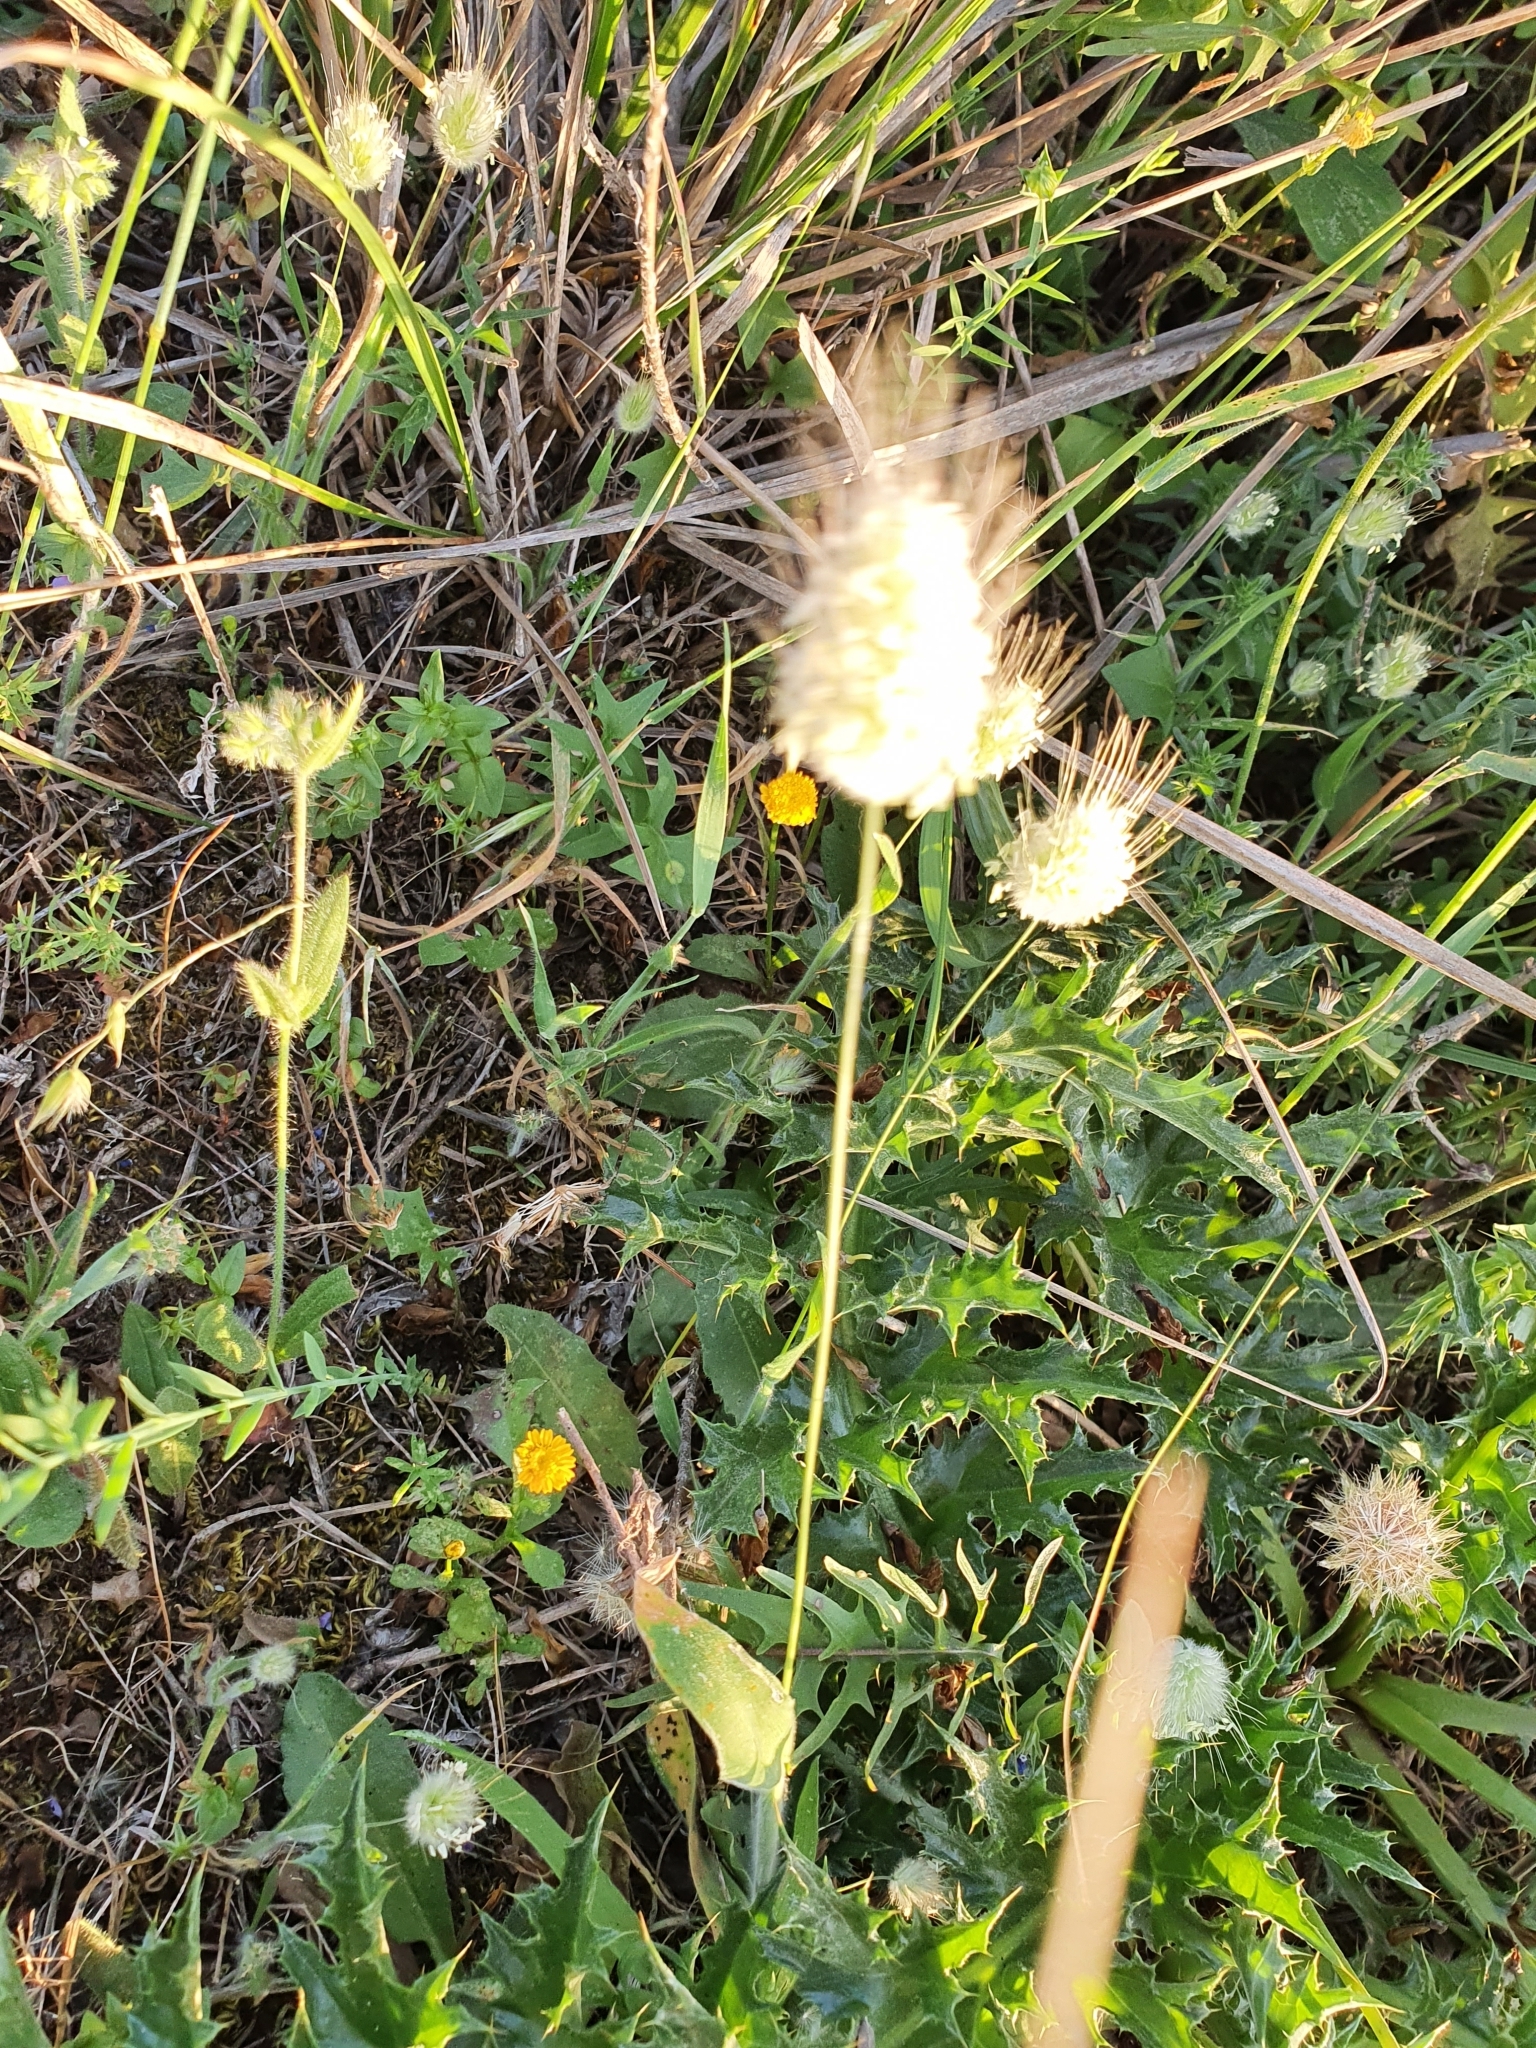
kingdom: Plantae
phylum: Tracheophyta
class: Liliopsida
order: Poales
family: Poaceae
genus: Lagurus
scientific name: Lagurus ovatus
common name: Hare's-tail
